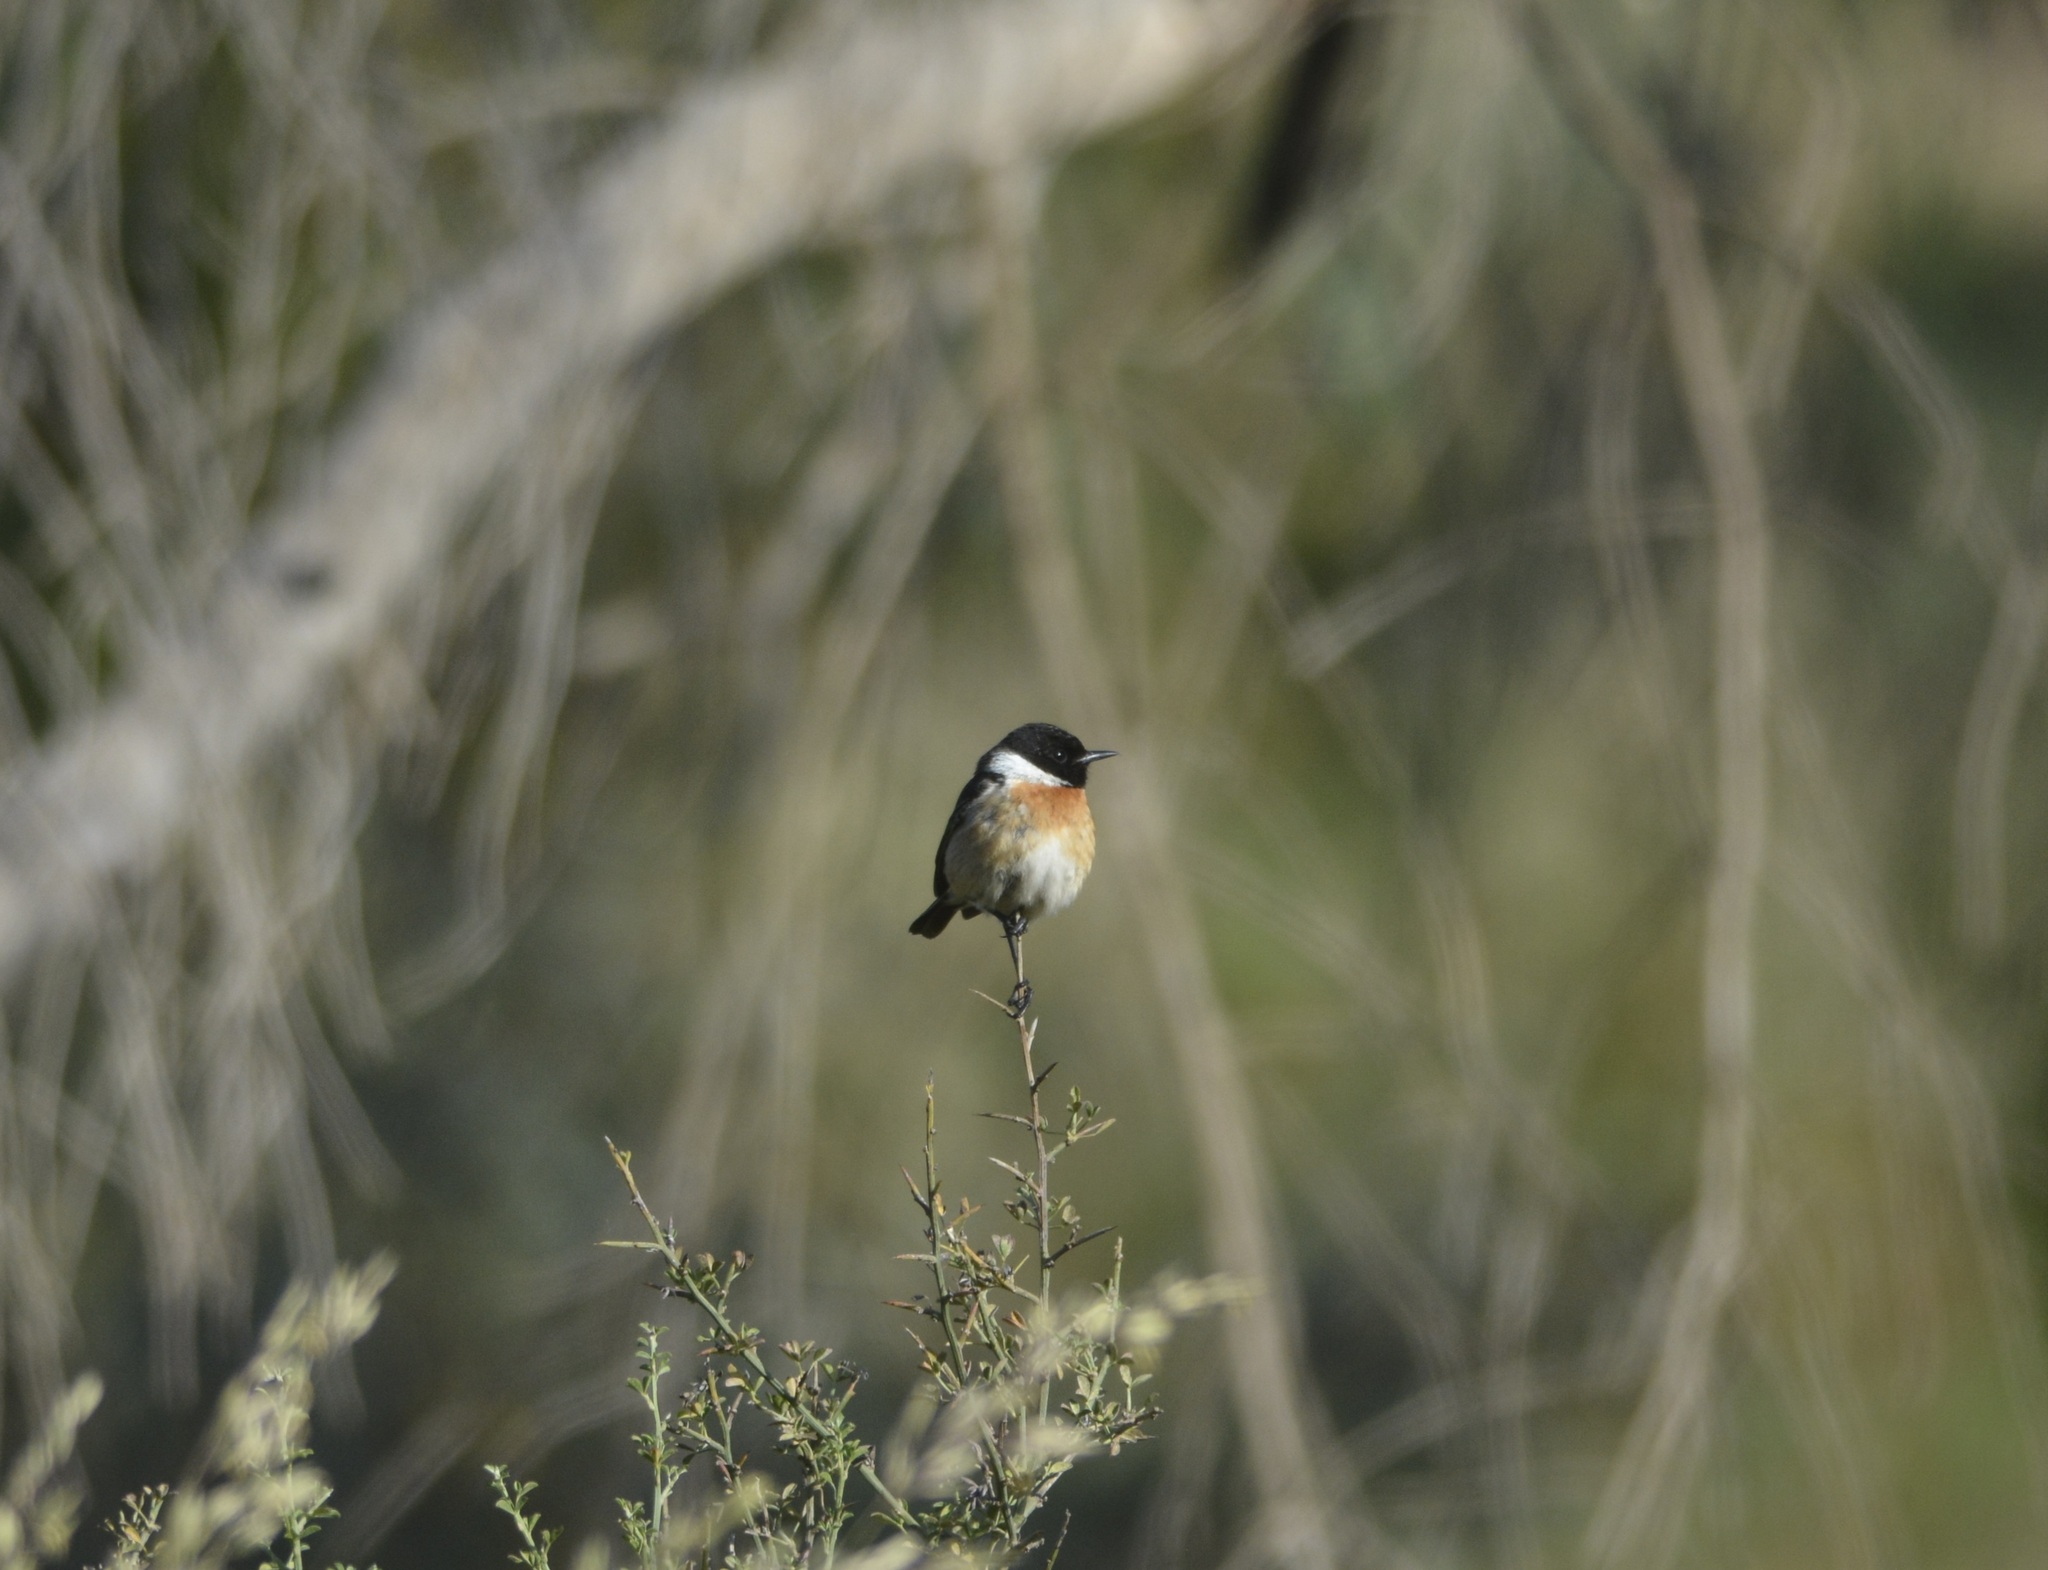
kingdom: Animalia
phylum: Chordata
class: Aves
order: Passeriformes
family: Muscicapidae
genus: Saxicola
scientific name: Saxicola rubicola
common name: European stonechat
